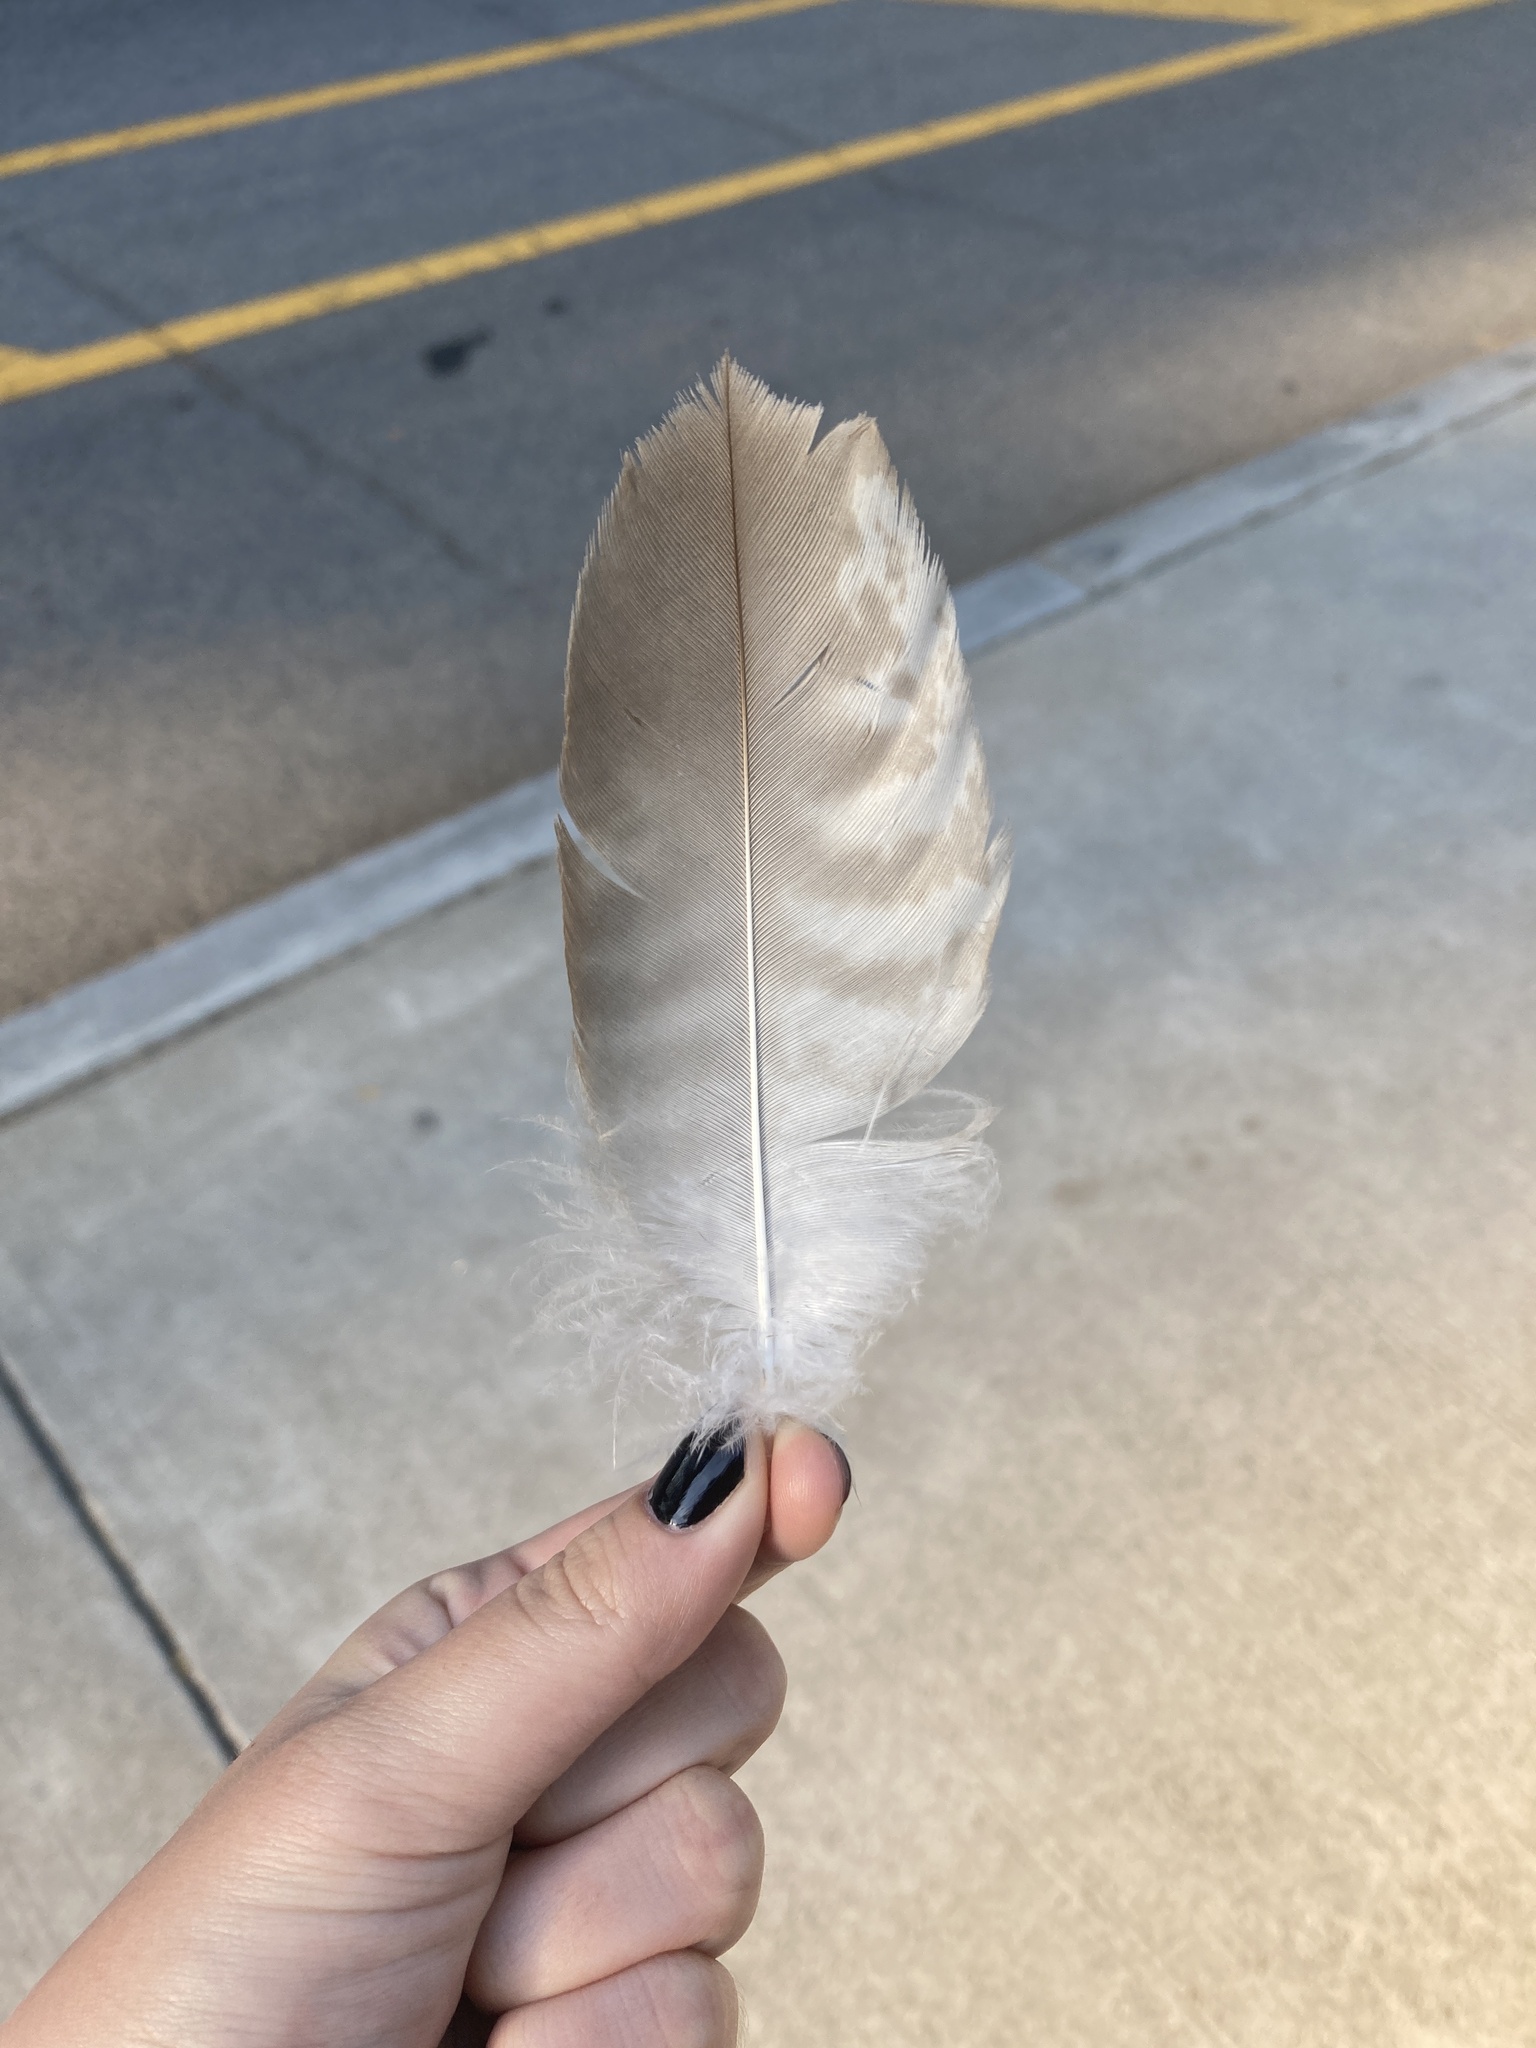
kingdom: Animalia
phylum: Chordata
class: Aves
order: Accipitriformes
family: Accipitridae
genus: Buteo
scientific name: Buteo jamaicensis
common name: Red-tailed hawk
